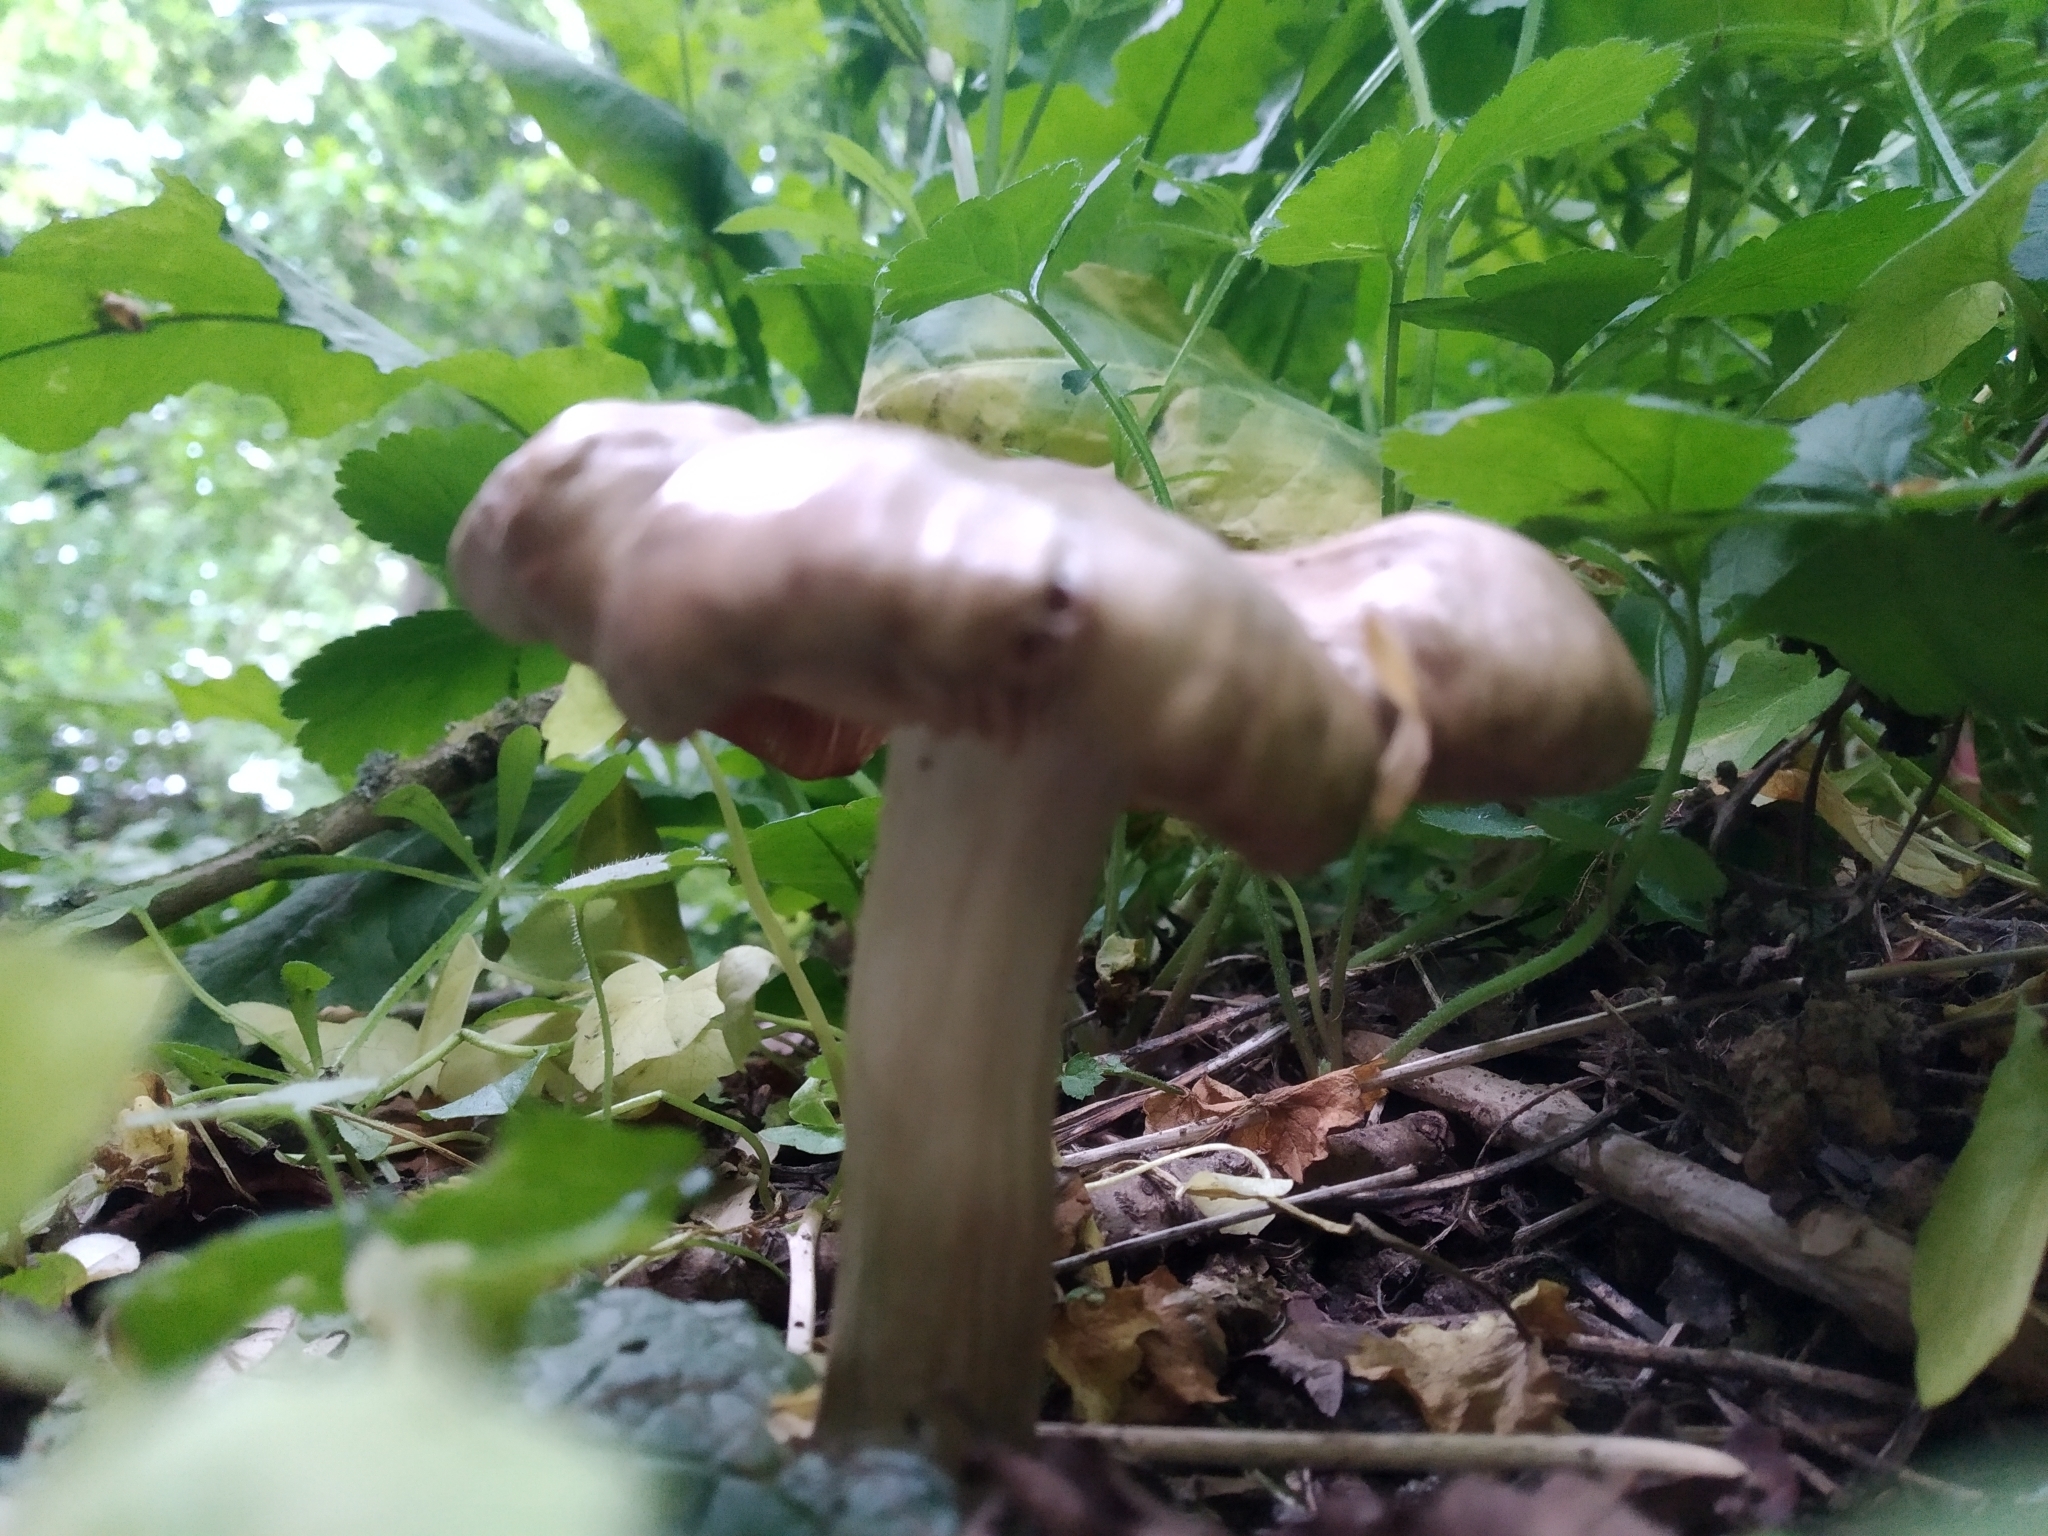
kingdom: Fungi
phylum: Basidiomycota
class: Agaricomycetes
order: Agaricales
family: Tricholomataceae
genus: Megacollybia
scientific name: Megacollybia platyphylla
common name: Whitelaced shank
